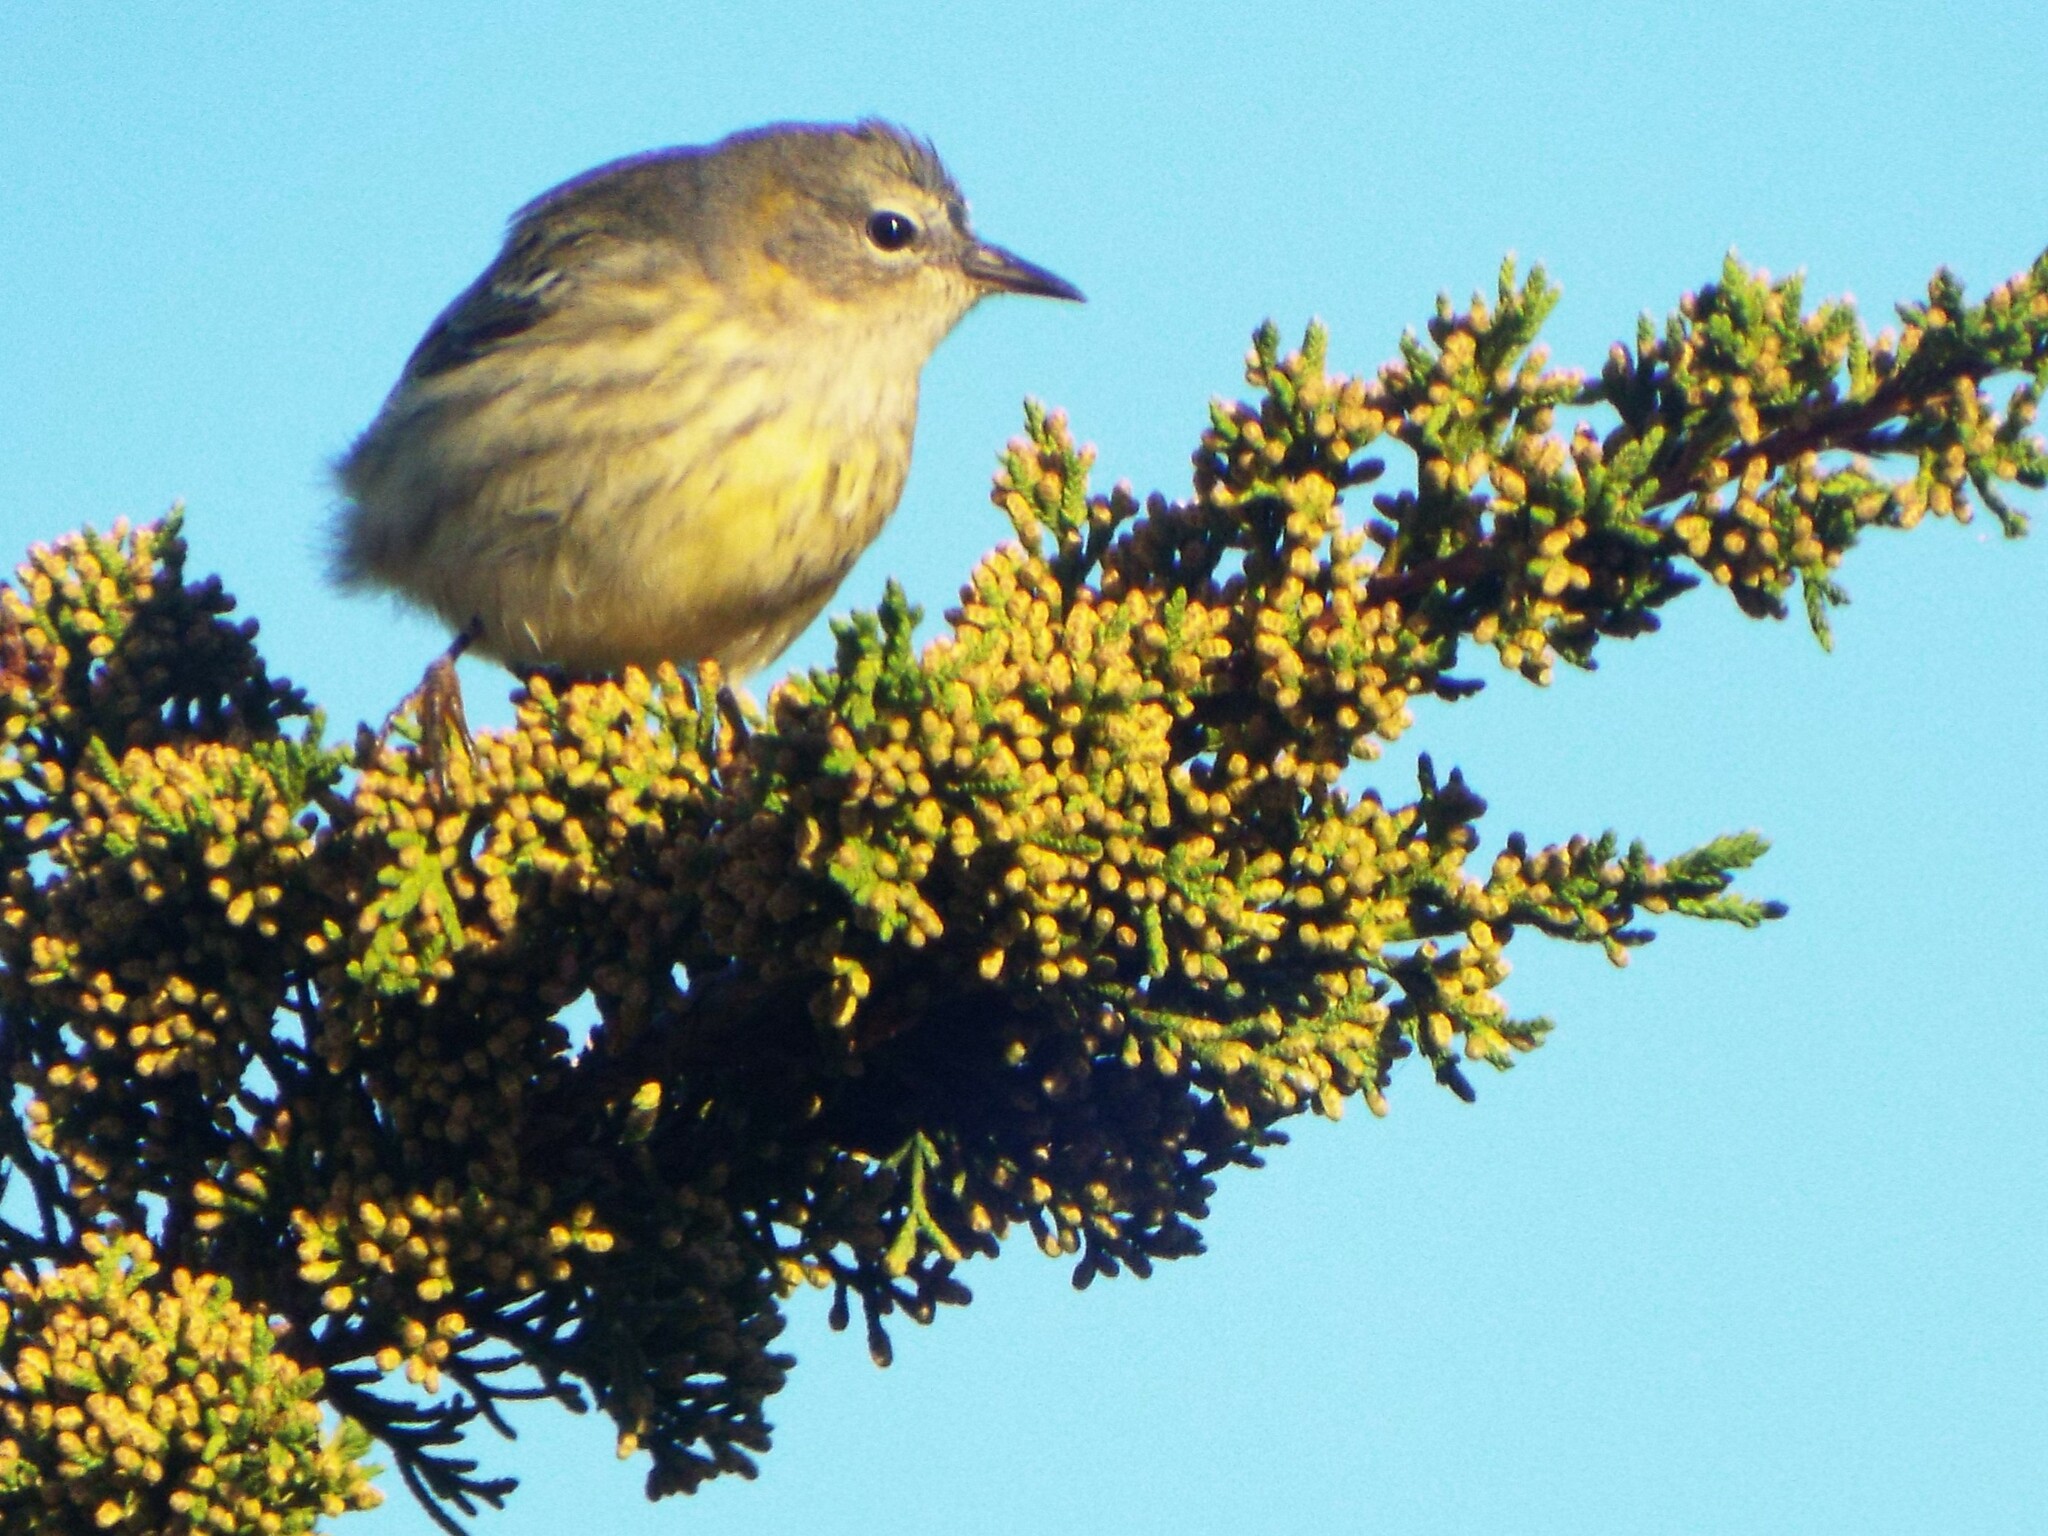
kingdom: Animalia
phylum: Chordata
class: Aves
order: Passeriformes
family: Parulidae
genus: Setophaga
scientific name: Setophaga tigrina
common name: Cape may warbler
